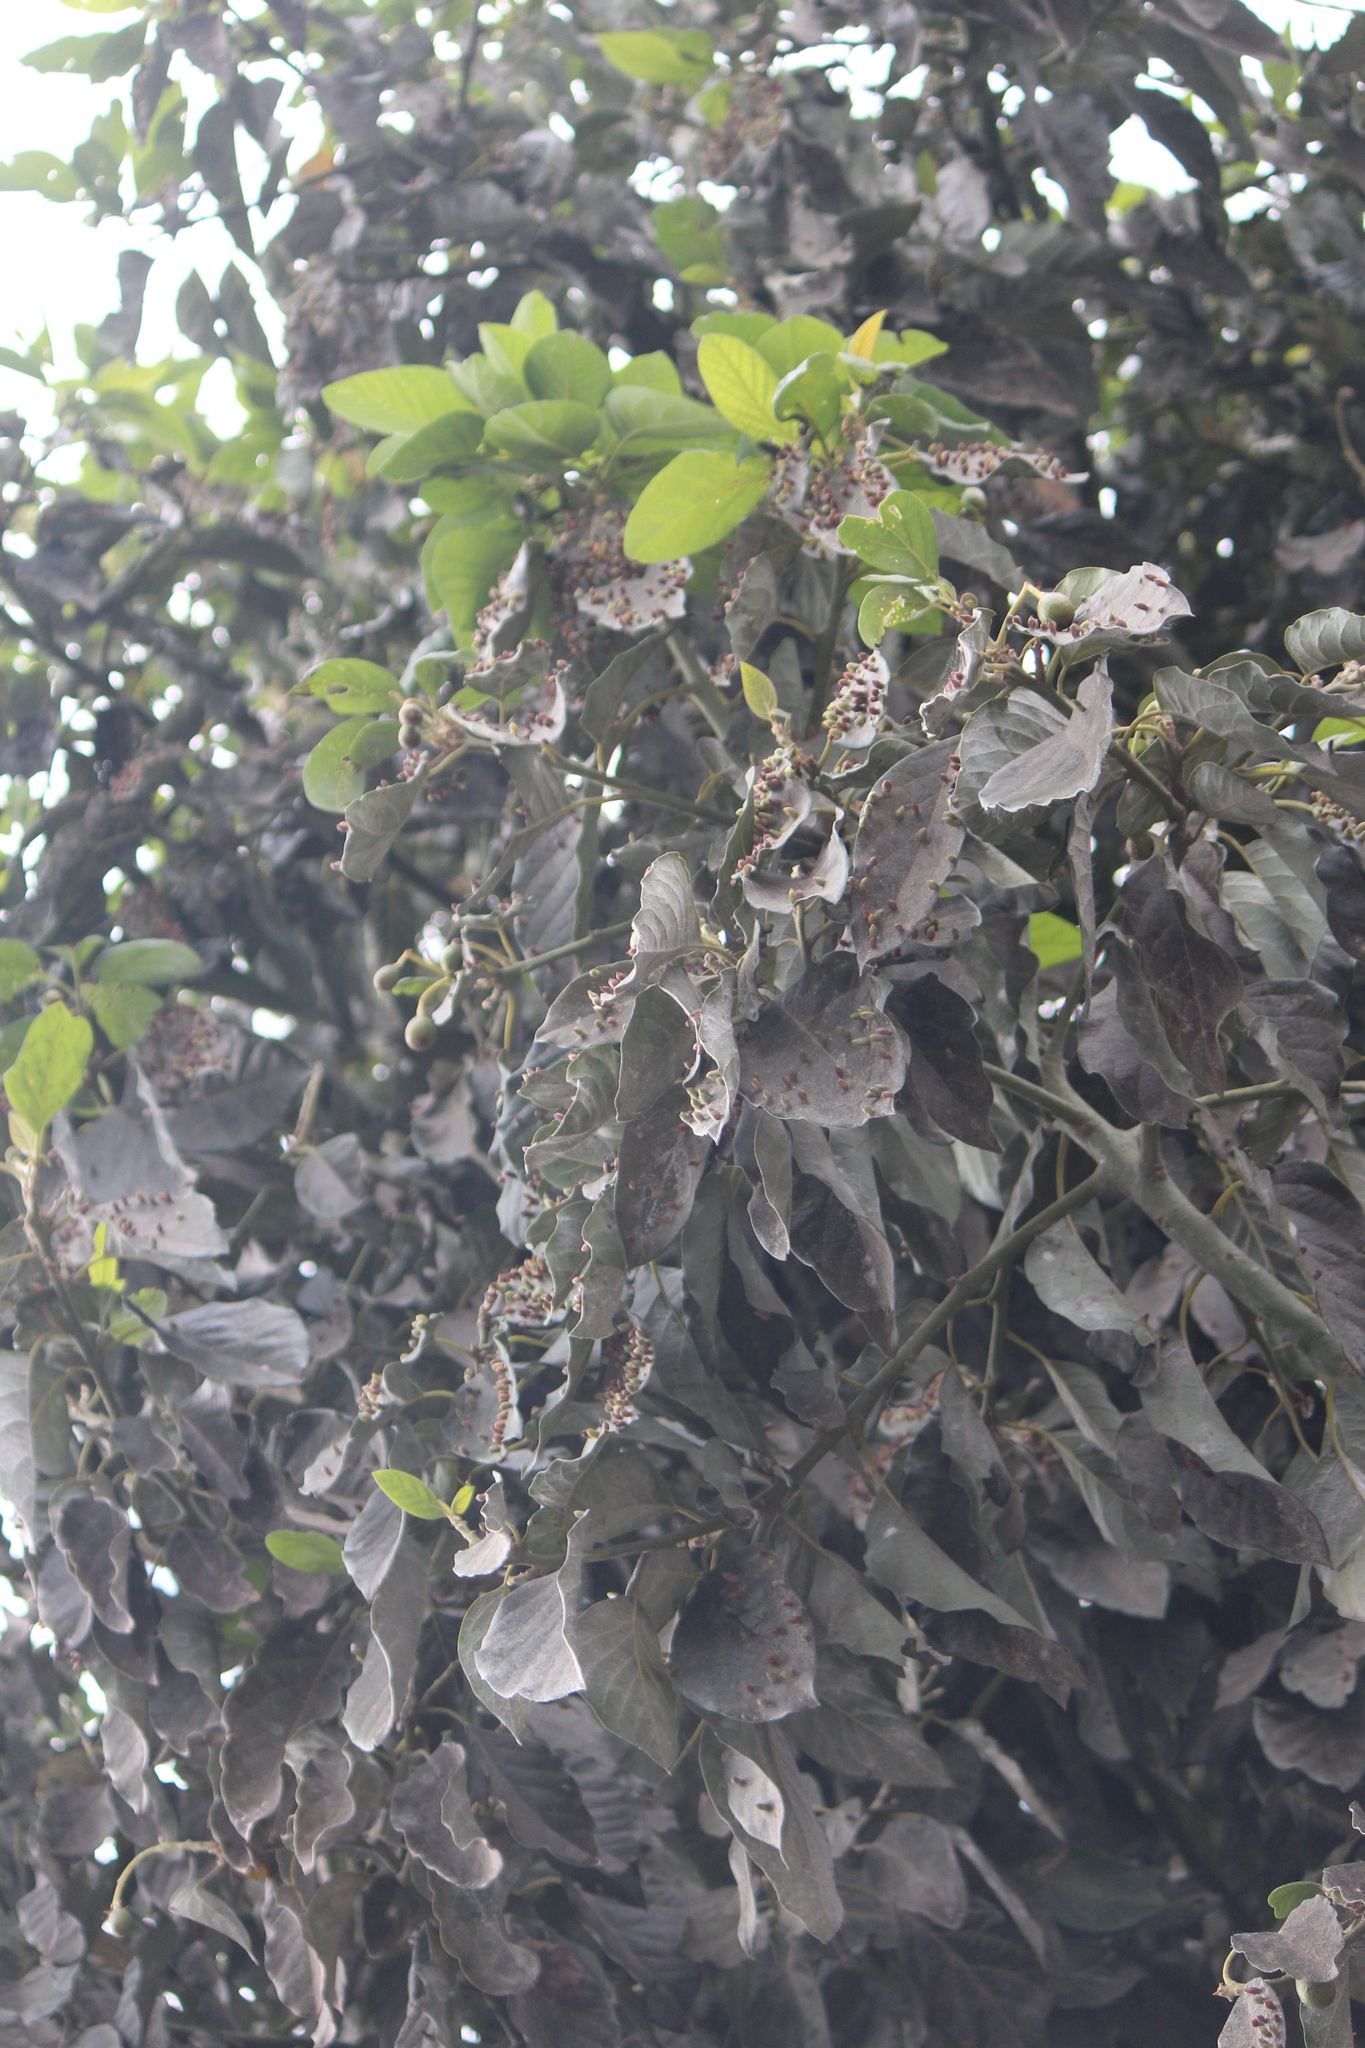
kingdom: Plantae
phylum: Tracheophyta
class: Magnoliopsida
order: Laurales
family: Lauraceae
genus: Persea
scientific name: Persea americana
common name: Avocado
